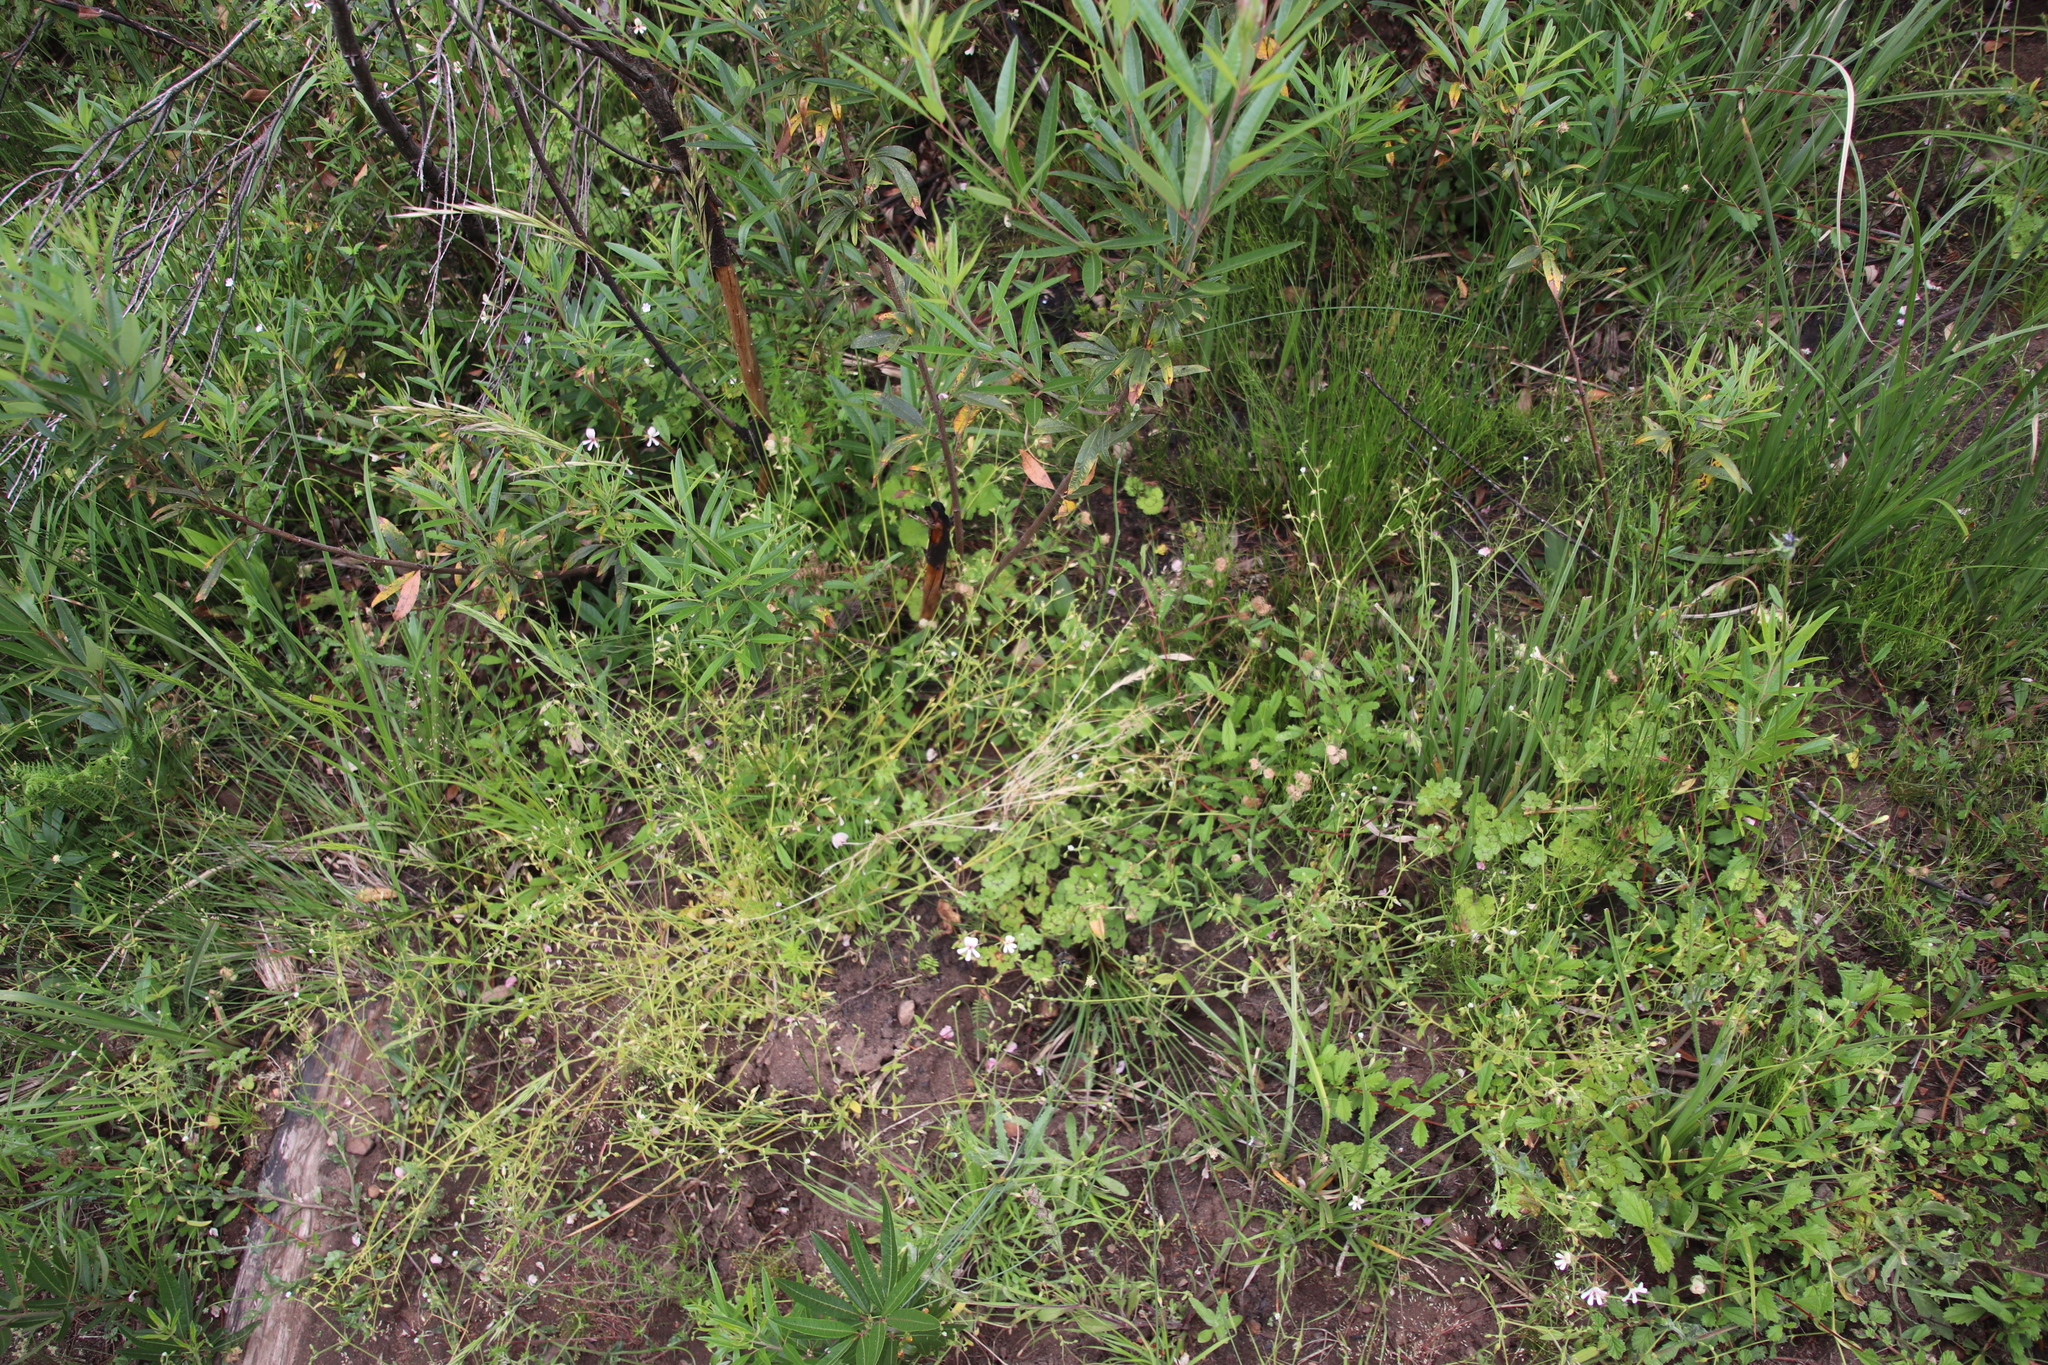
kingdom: Plantae
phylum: Tracheophyta
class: Magnoliopsida
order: Caryophyllales
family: Caryophyllaceae
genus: Cerastium
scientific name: Cerastium capense
